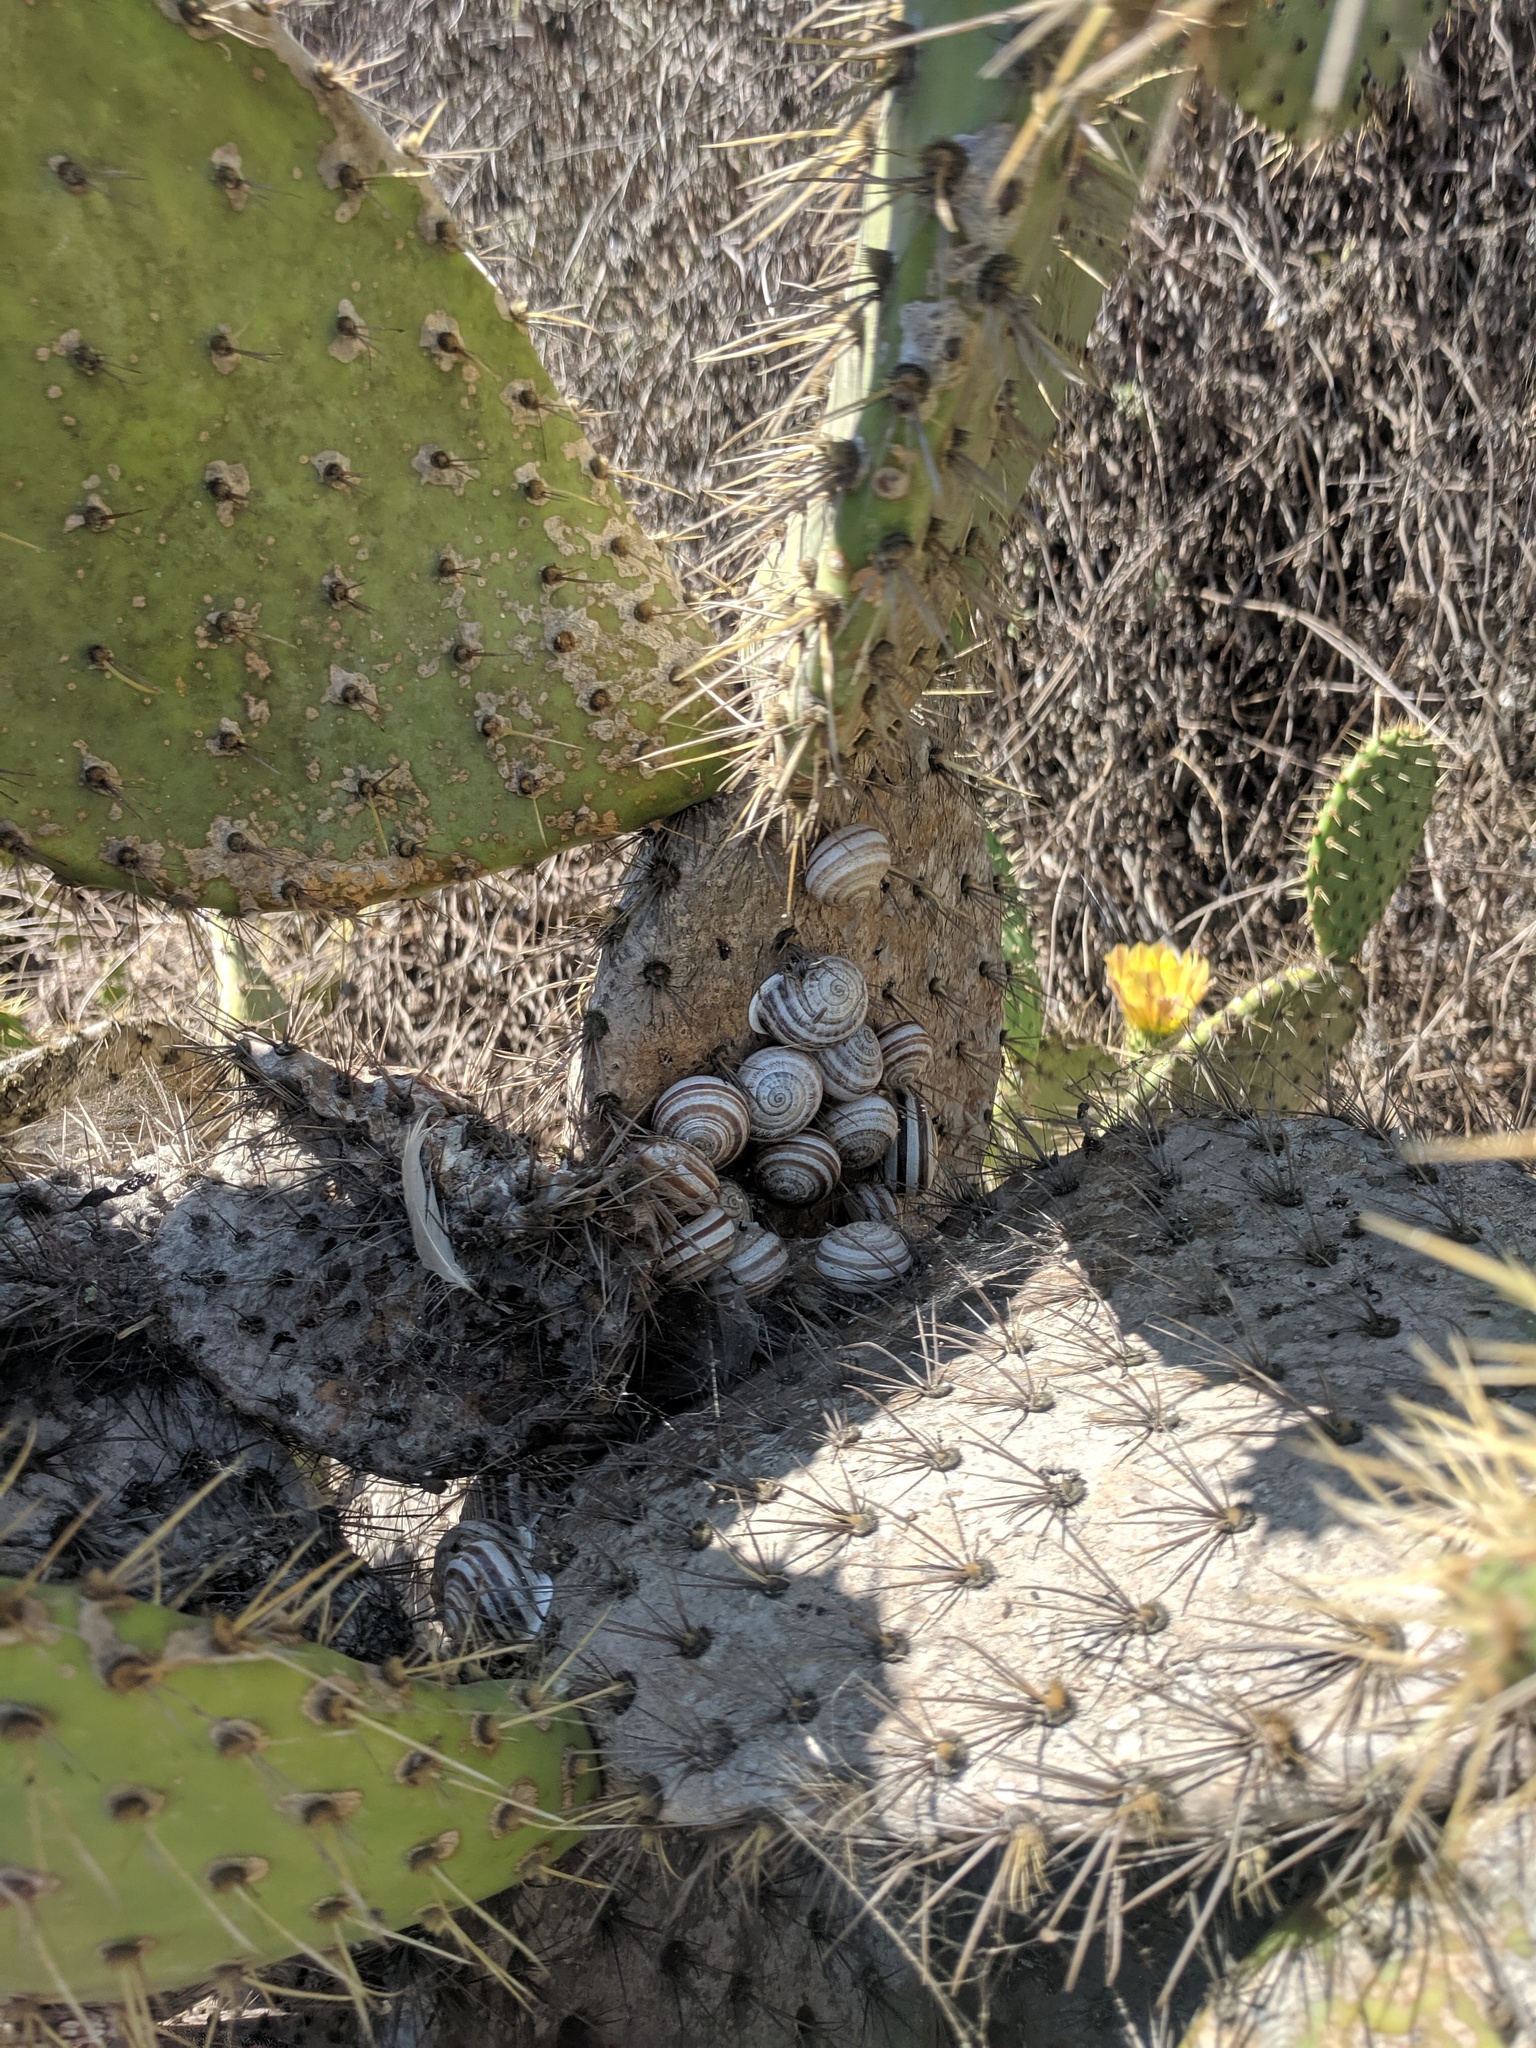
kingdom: Animalia
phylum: Mollusca
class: Gastropoda
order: Stylommatophora
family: Helicidae
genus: Otala
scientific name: Otala lactea
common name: Milk snail
